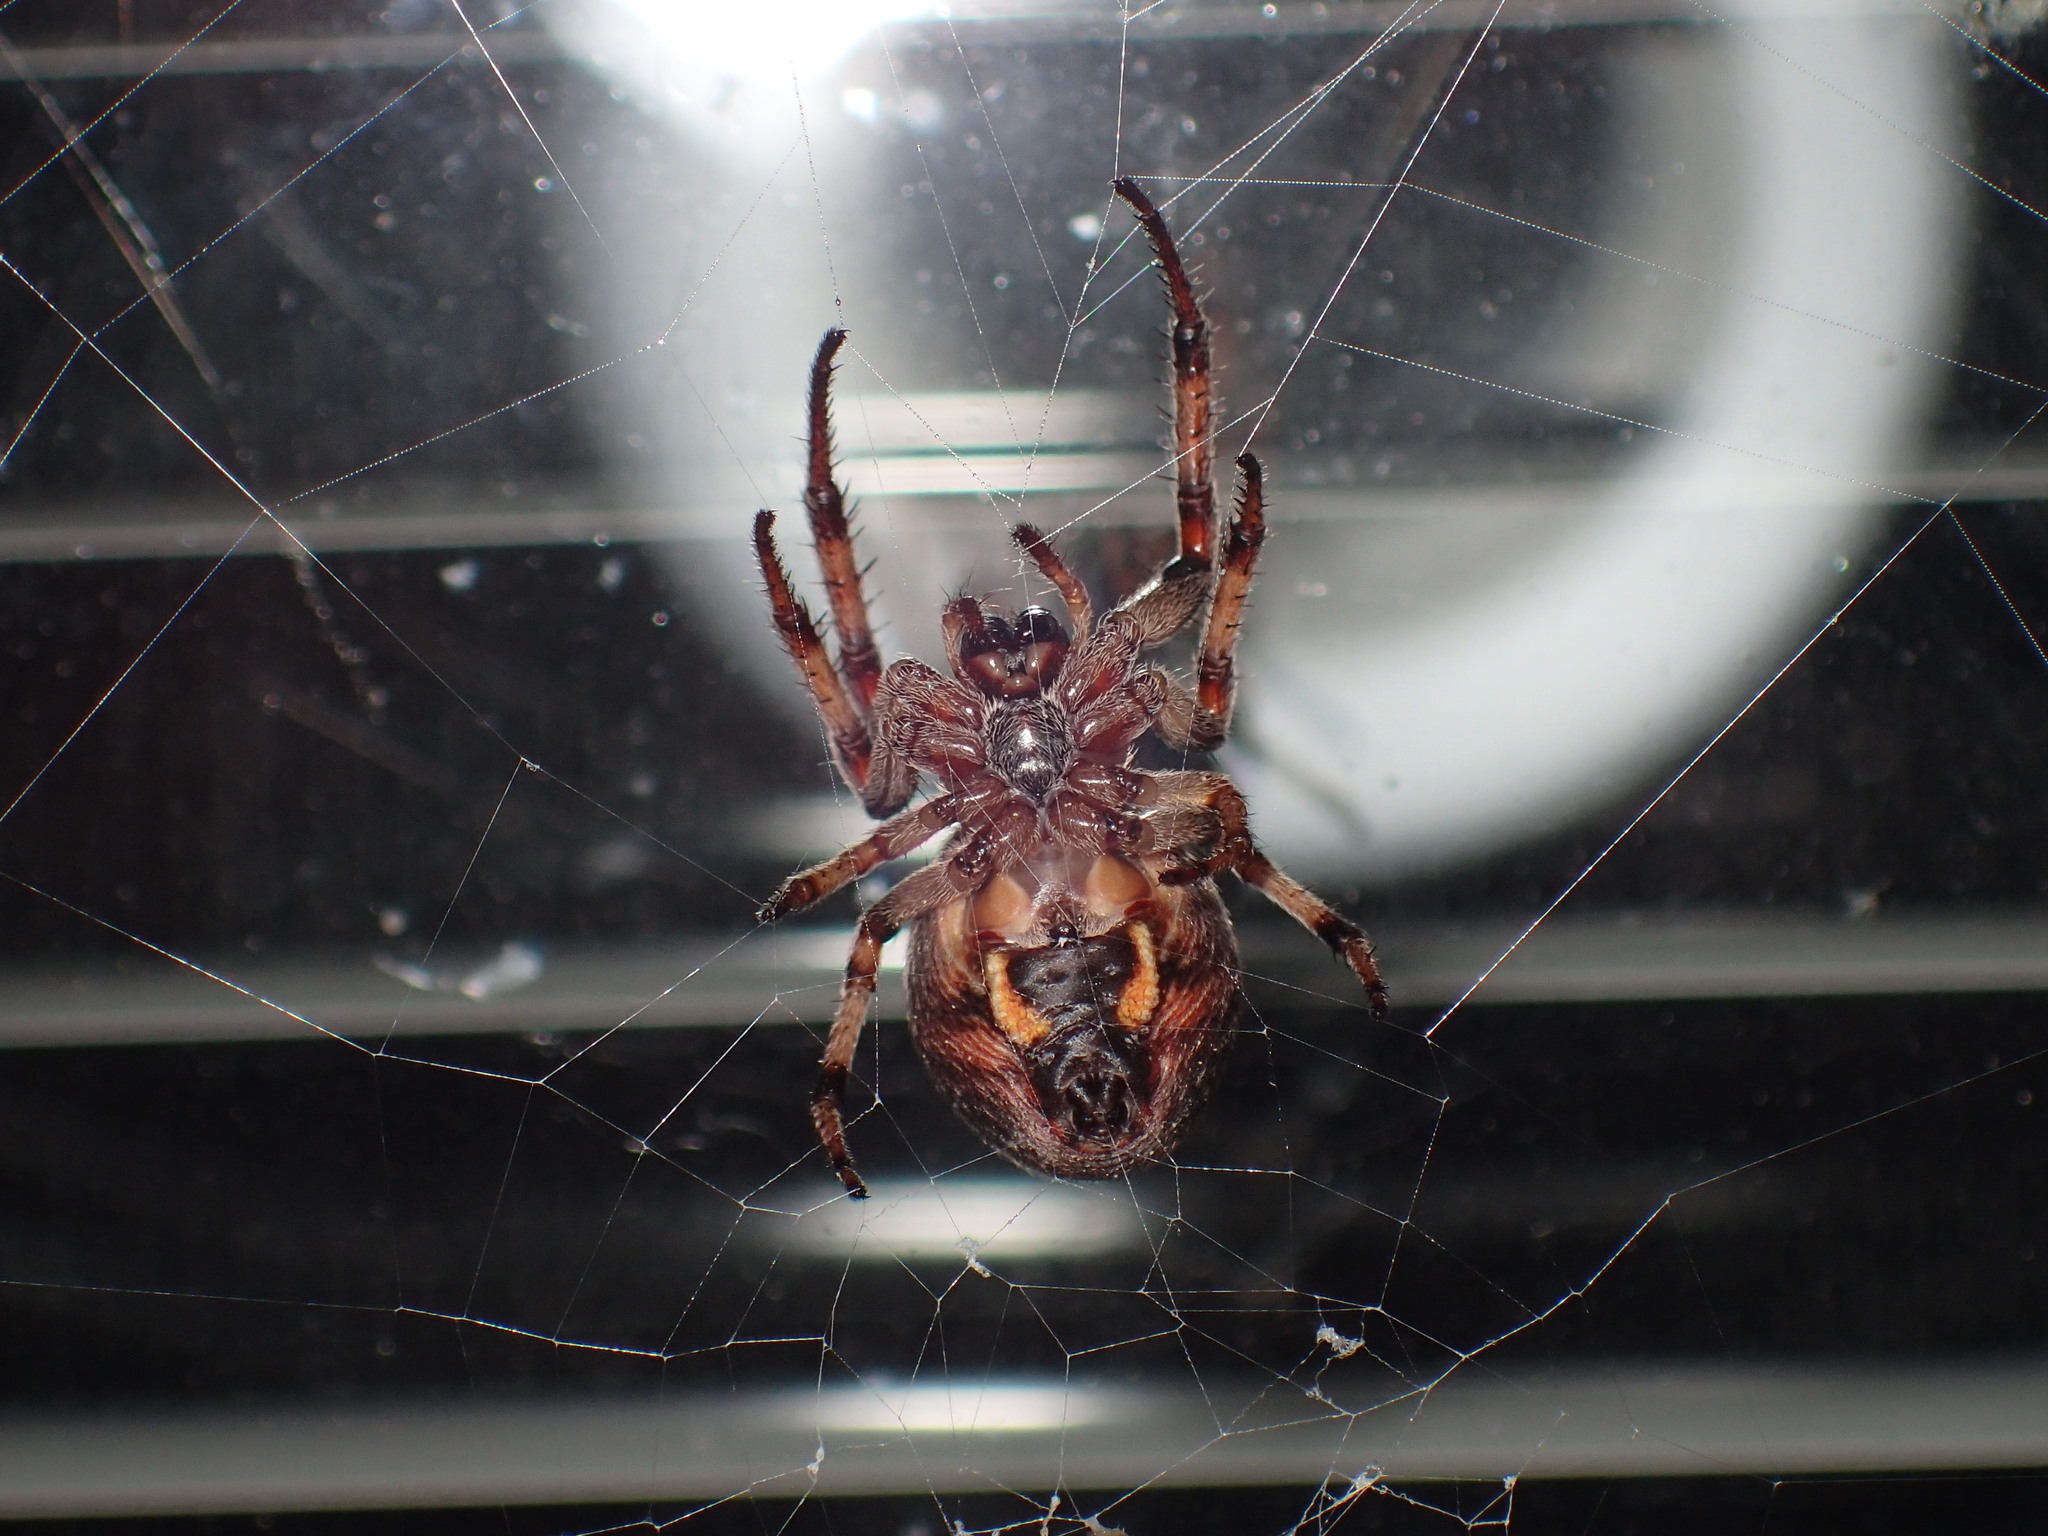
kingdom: Animalia
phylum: Arthropoda
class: Arachnida
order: Araneae
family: Araneidae
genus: Larinioides
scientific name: Larinioides cornutus
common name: Furrow orbweaver
